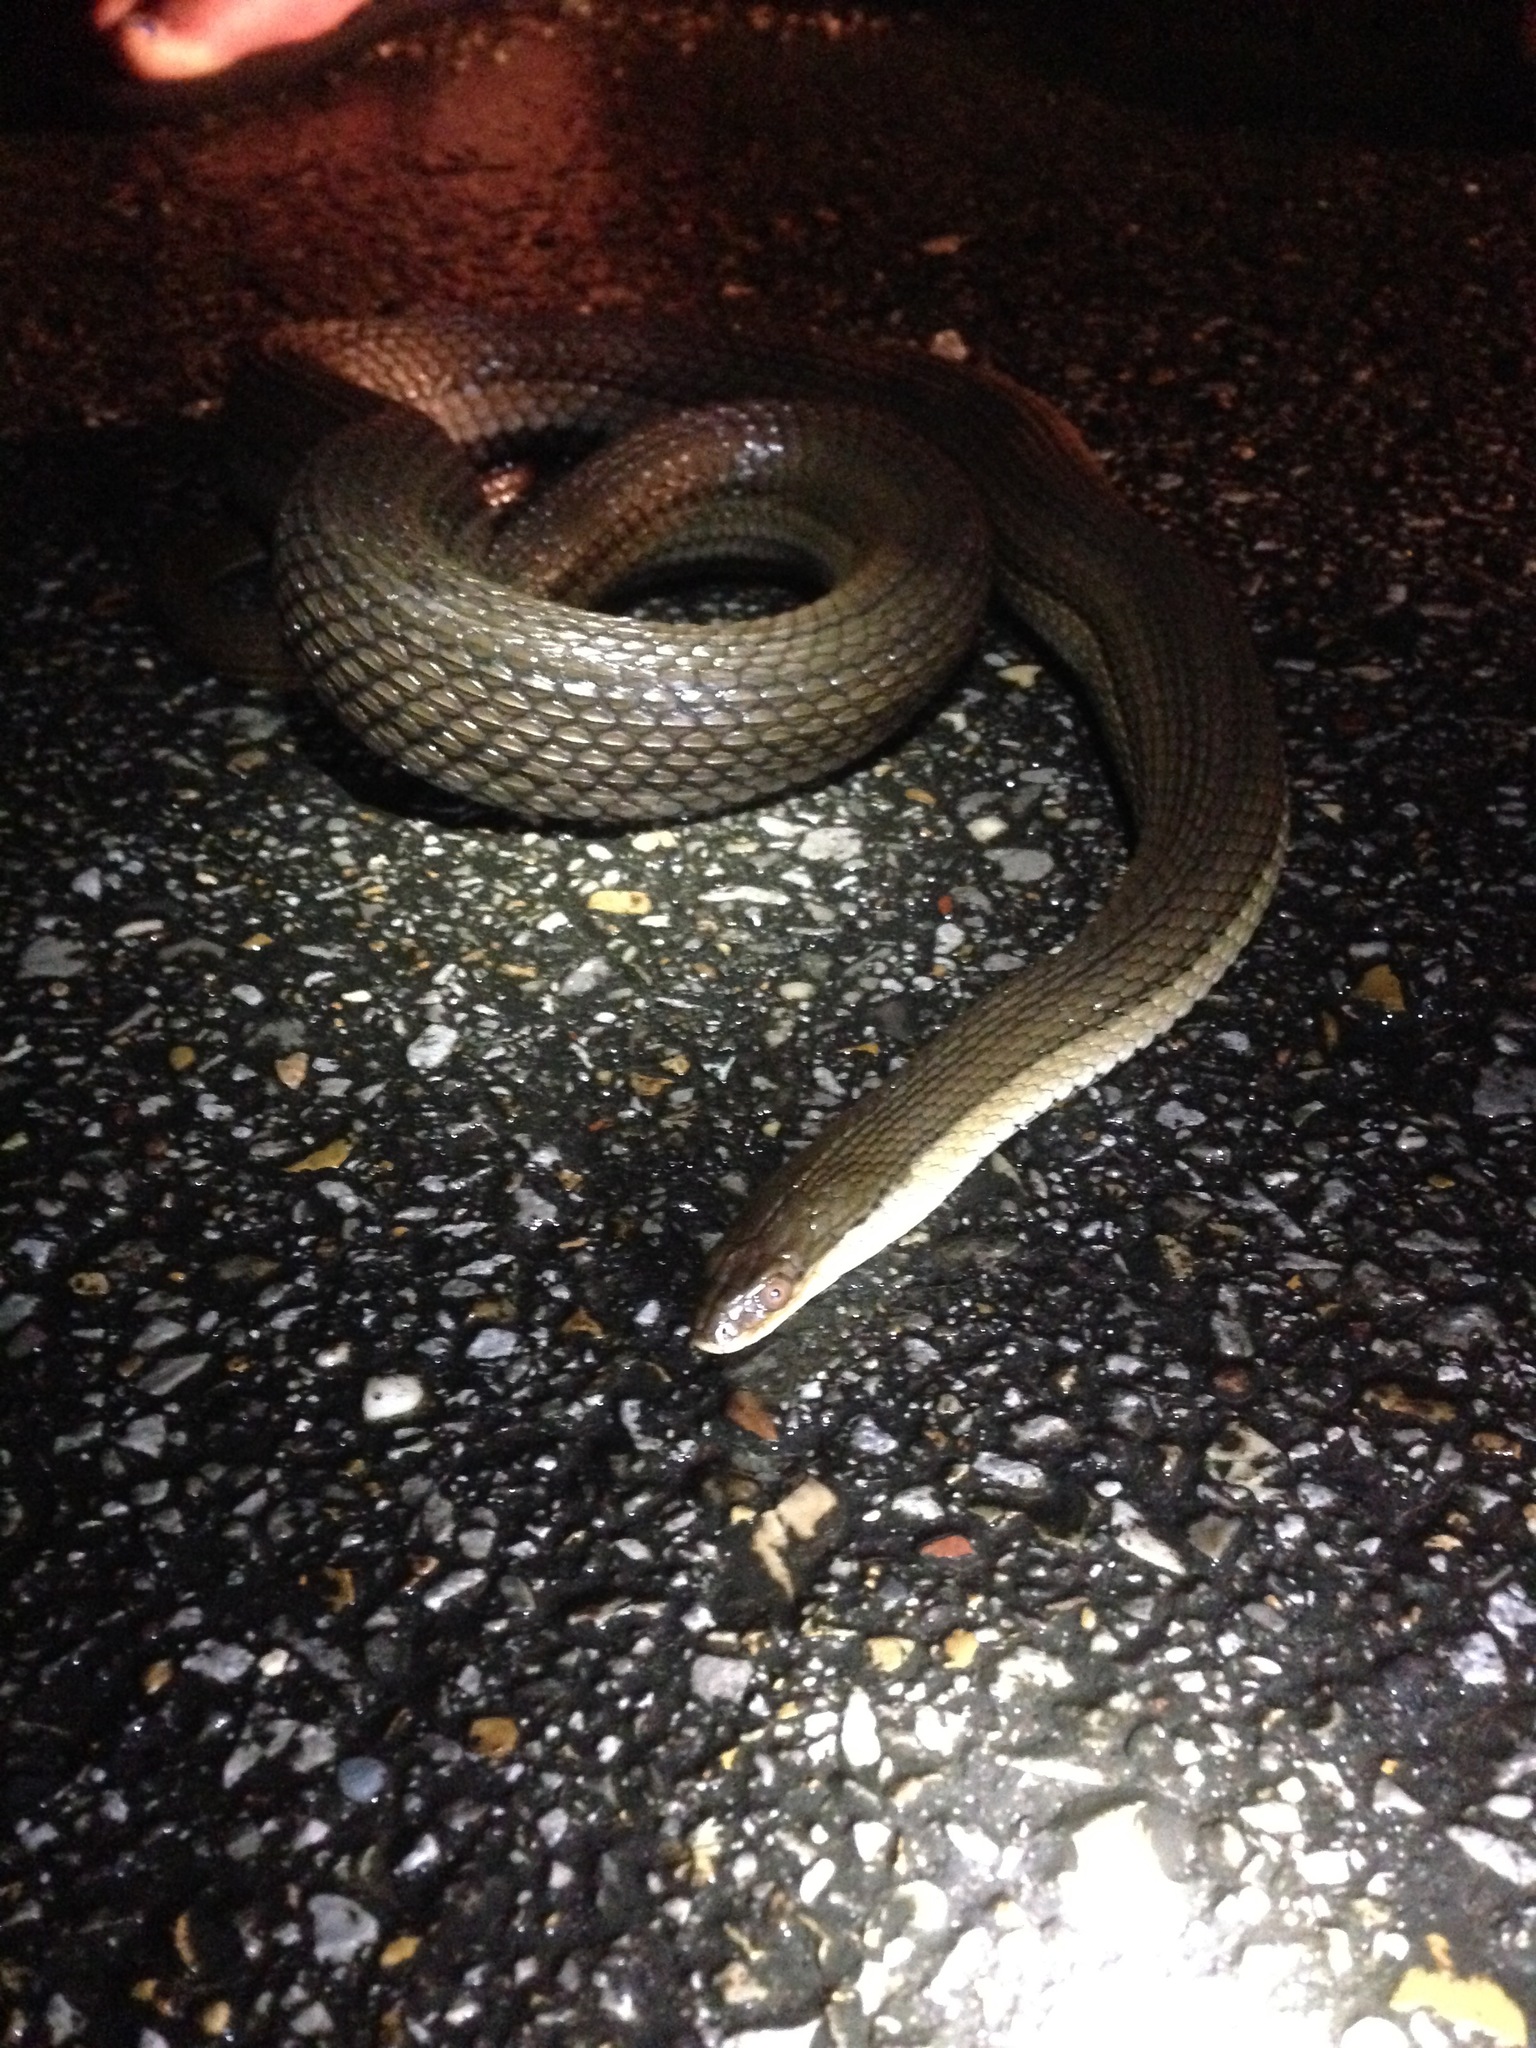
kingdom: Animalia
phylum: Chordata
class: Squamata
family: Colubridae
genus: Regina
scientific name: Regina grahamii
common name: Graham's crayfish snake
